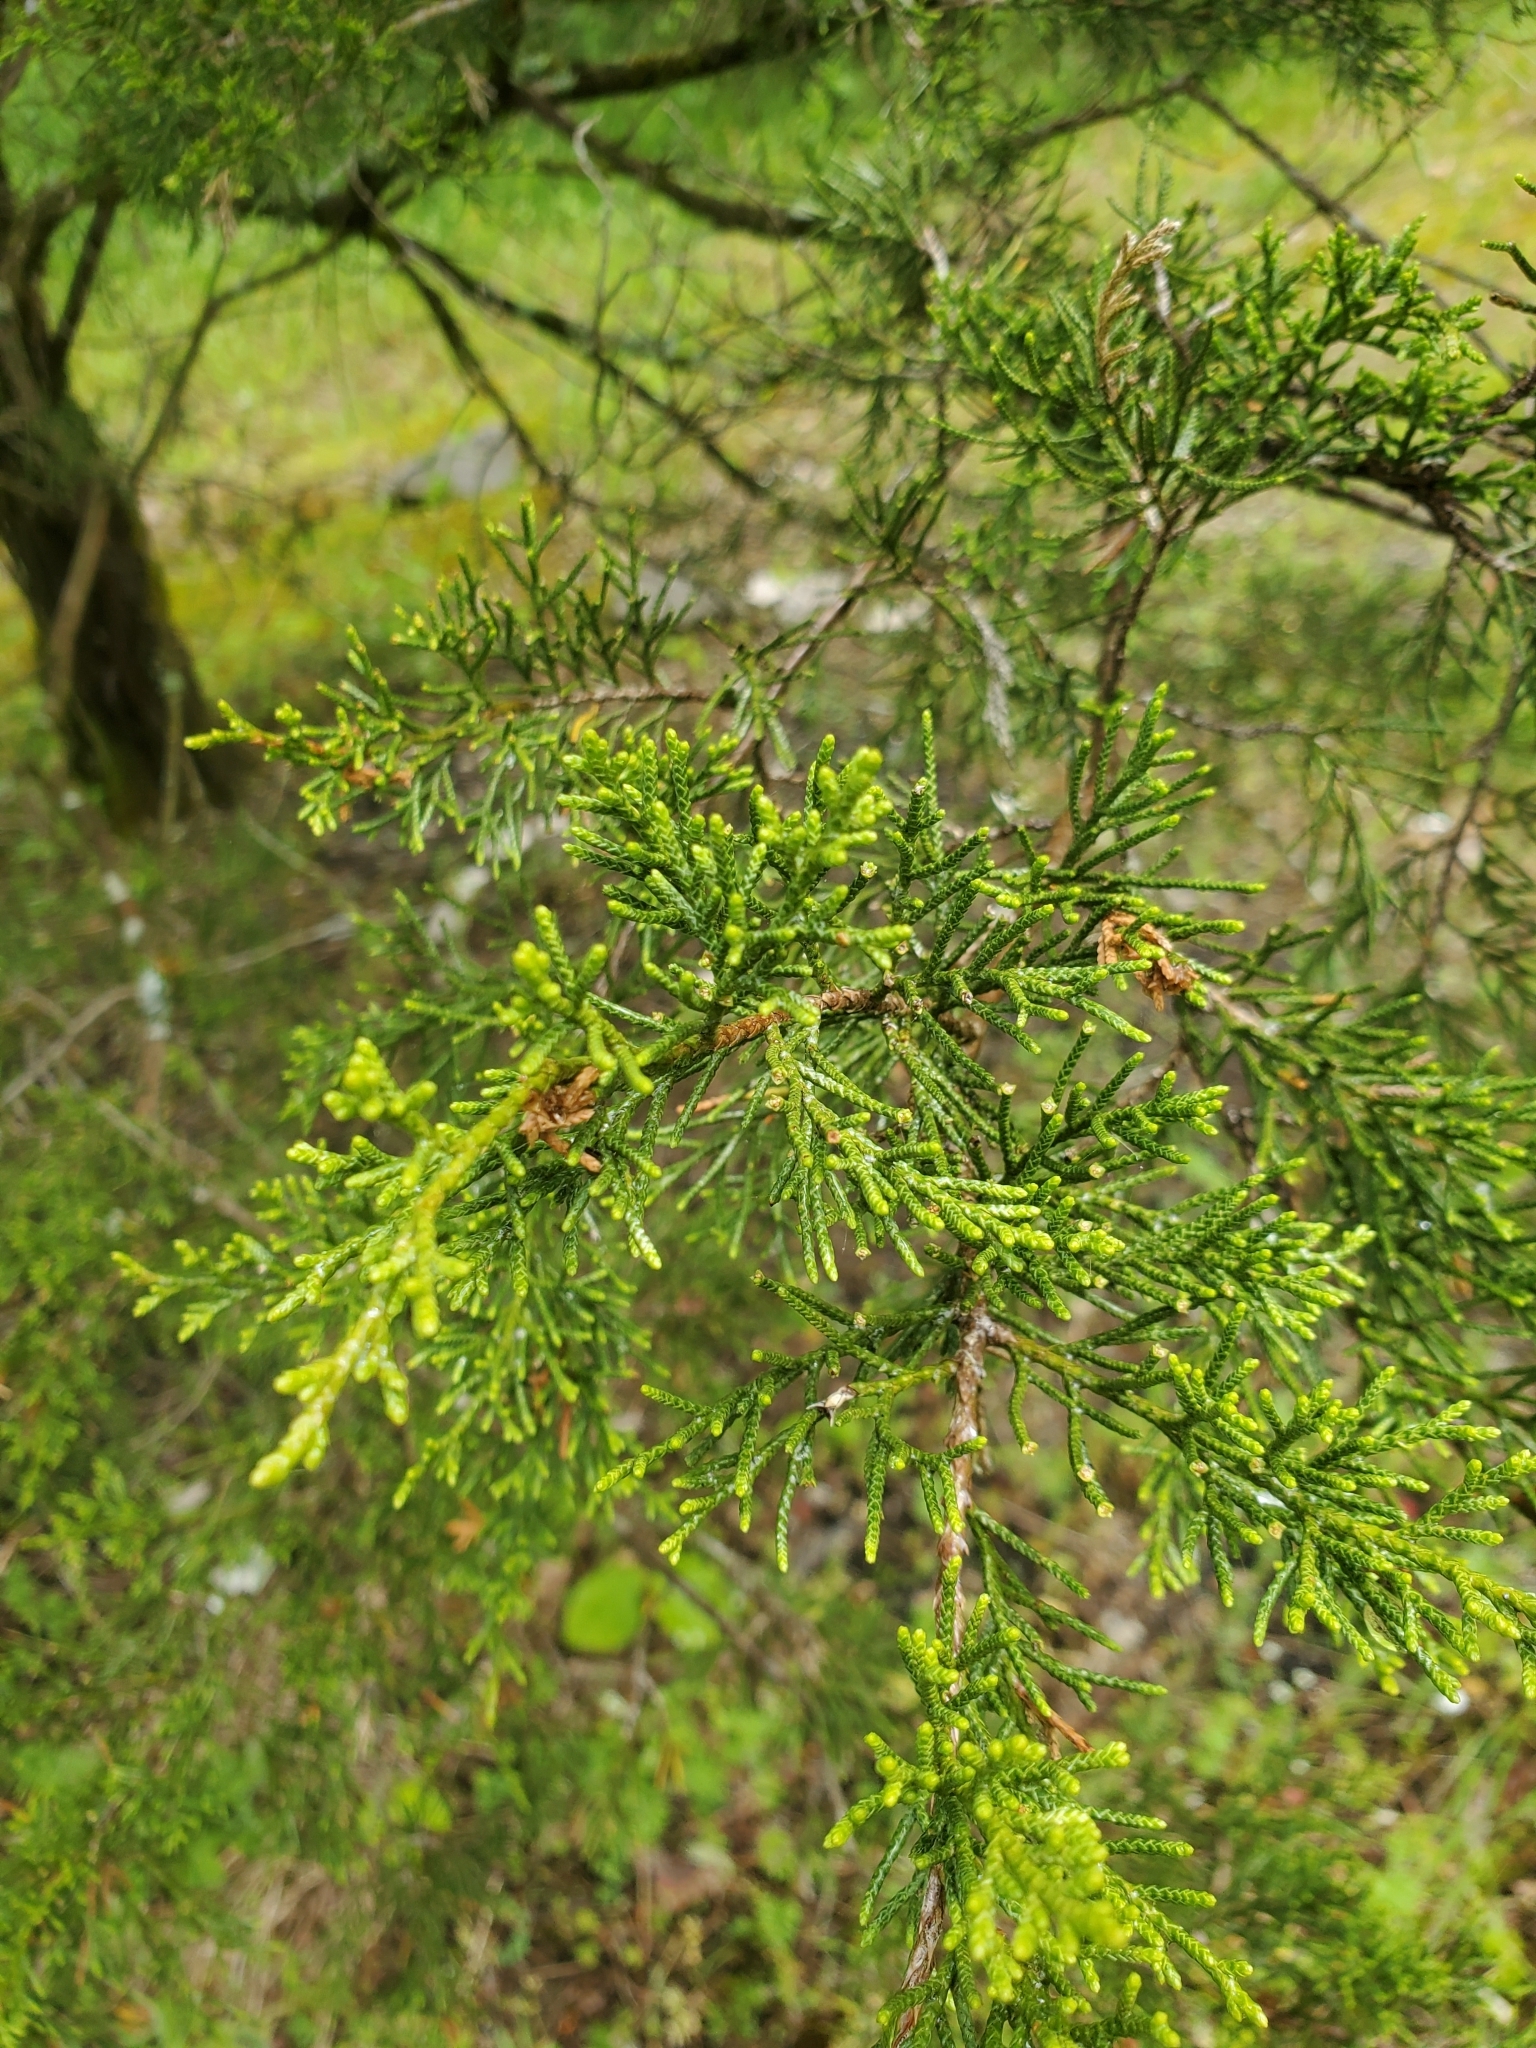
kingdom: Plantae
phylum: Tracheophyta
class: Pinopsida
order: Pinales
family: Cupressaceae
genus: Juniperus
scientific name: Juniperus virginiana
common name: Red juniper
